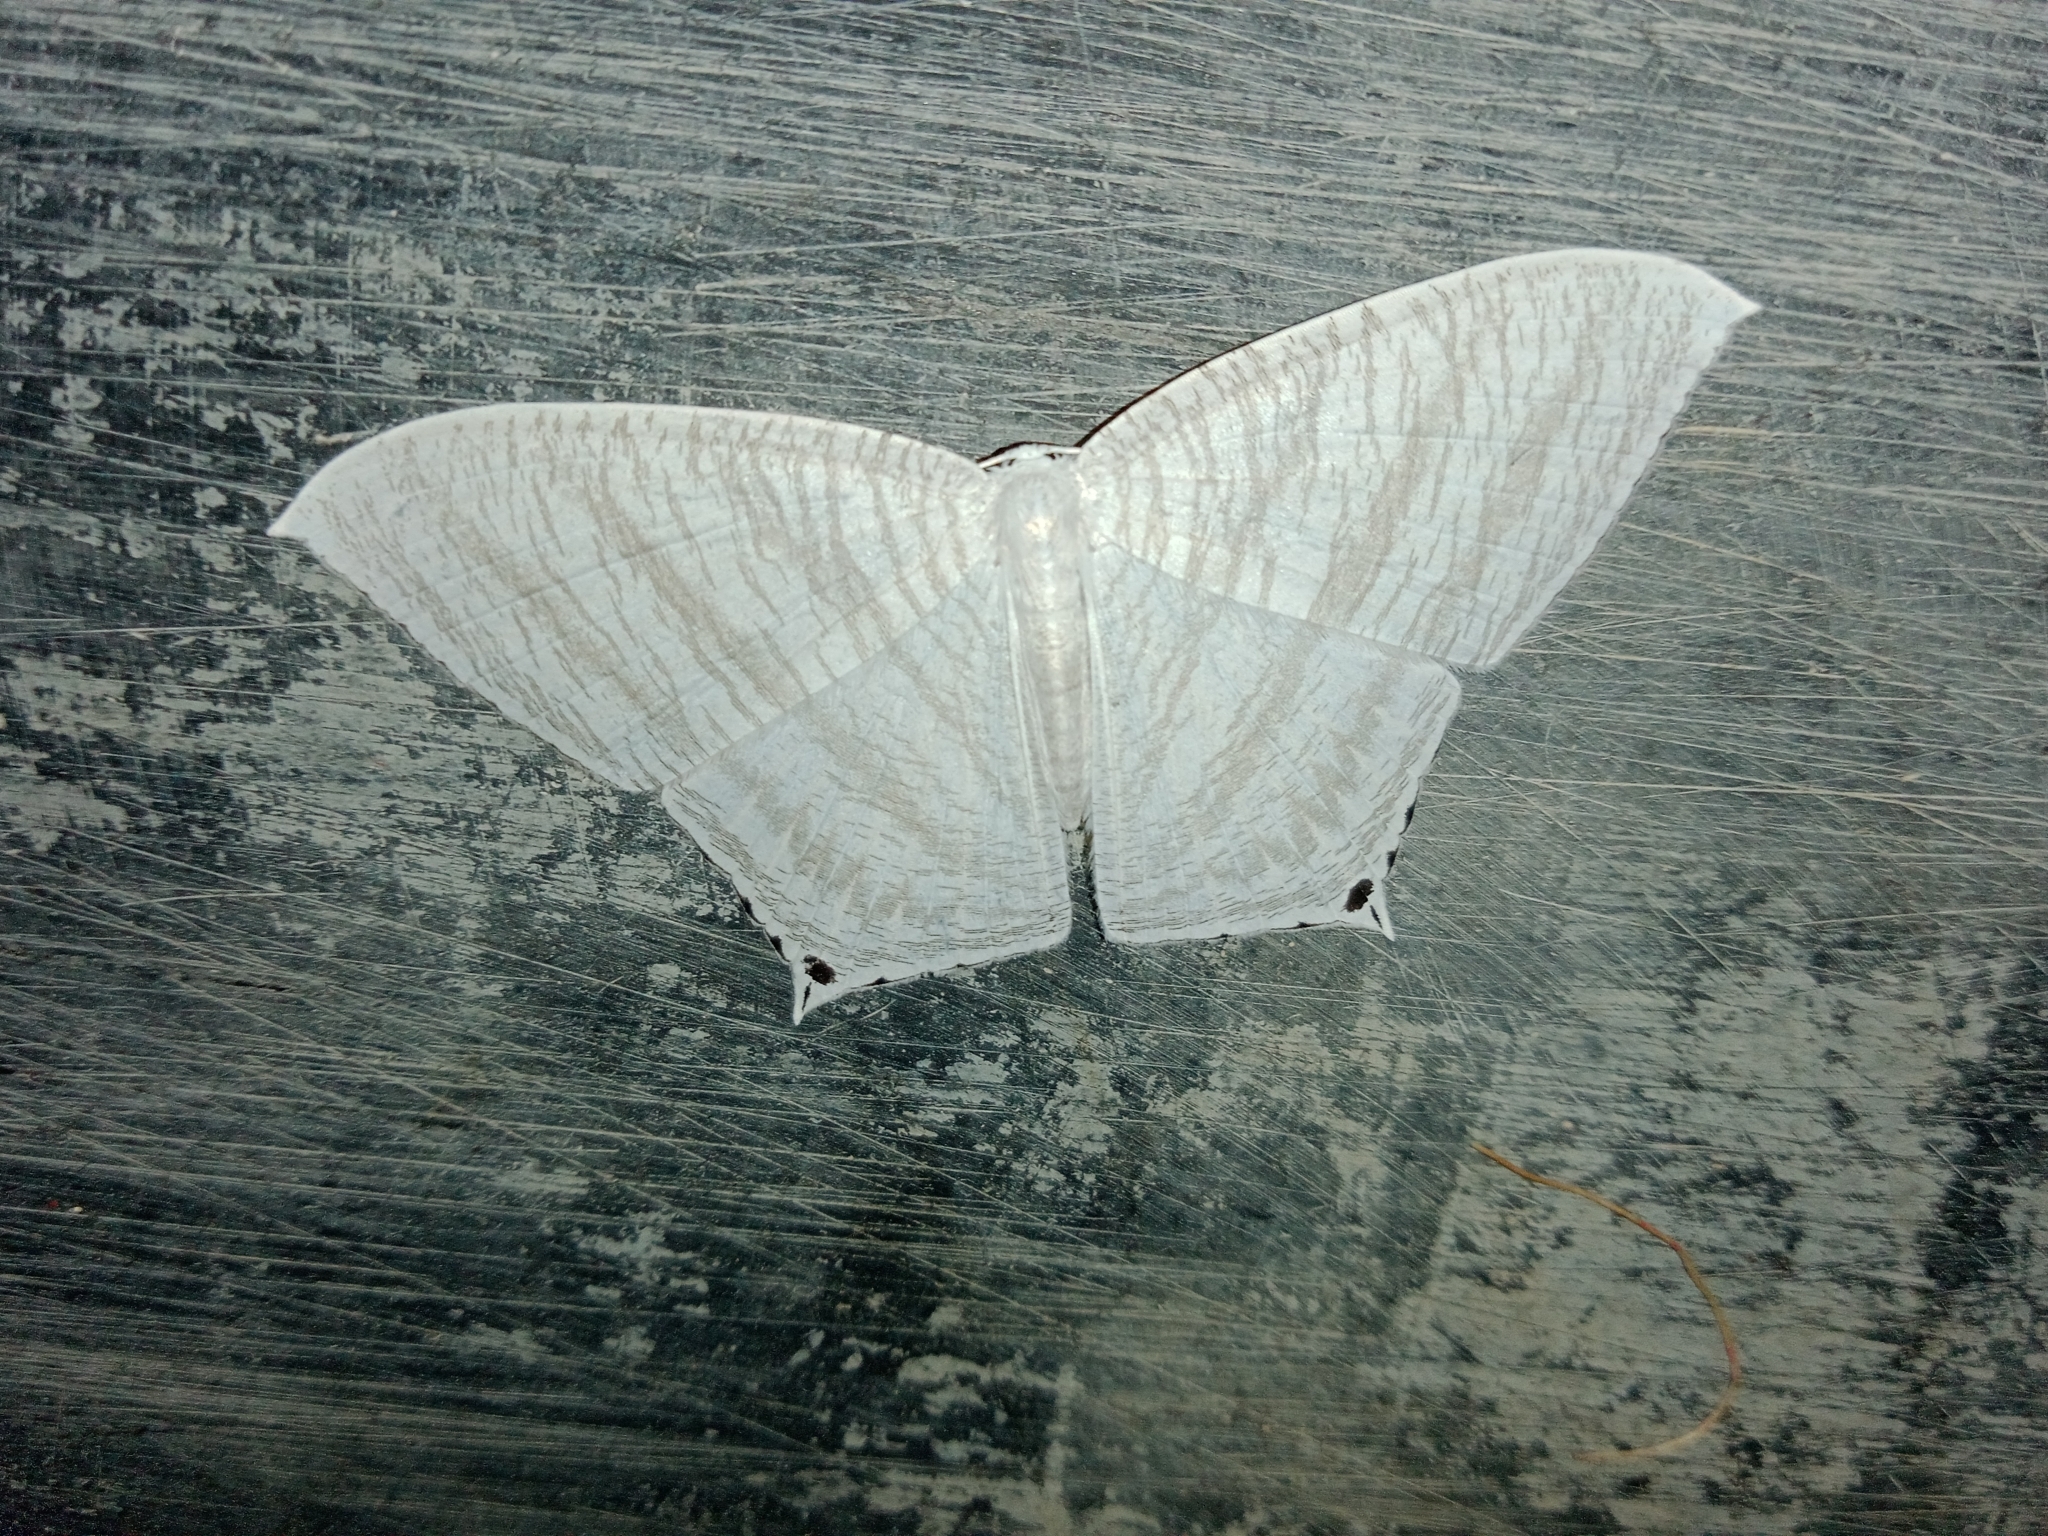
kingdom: Animalia
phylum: Arthropoda
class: Insecta
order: Lepidoptera
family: Uraniidae
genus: Micronia
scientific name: Micronia aculeata
